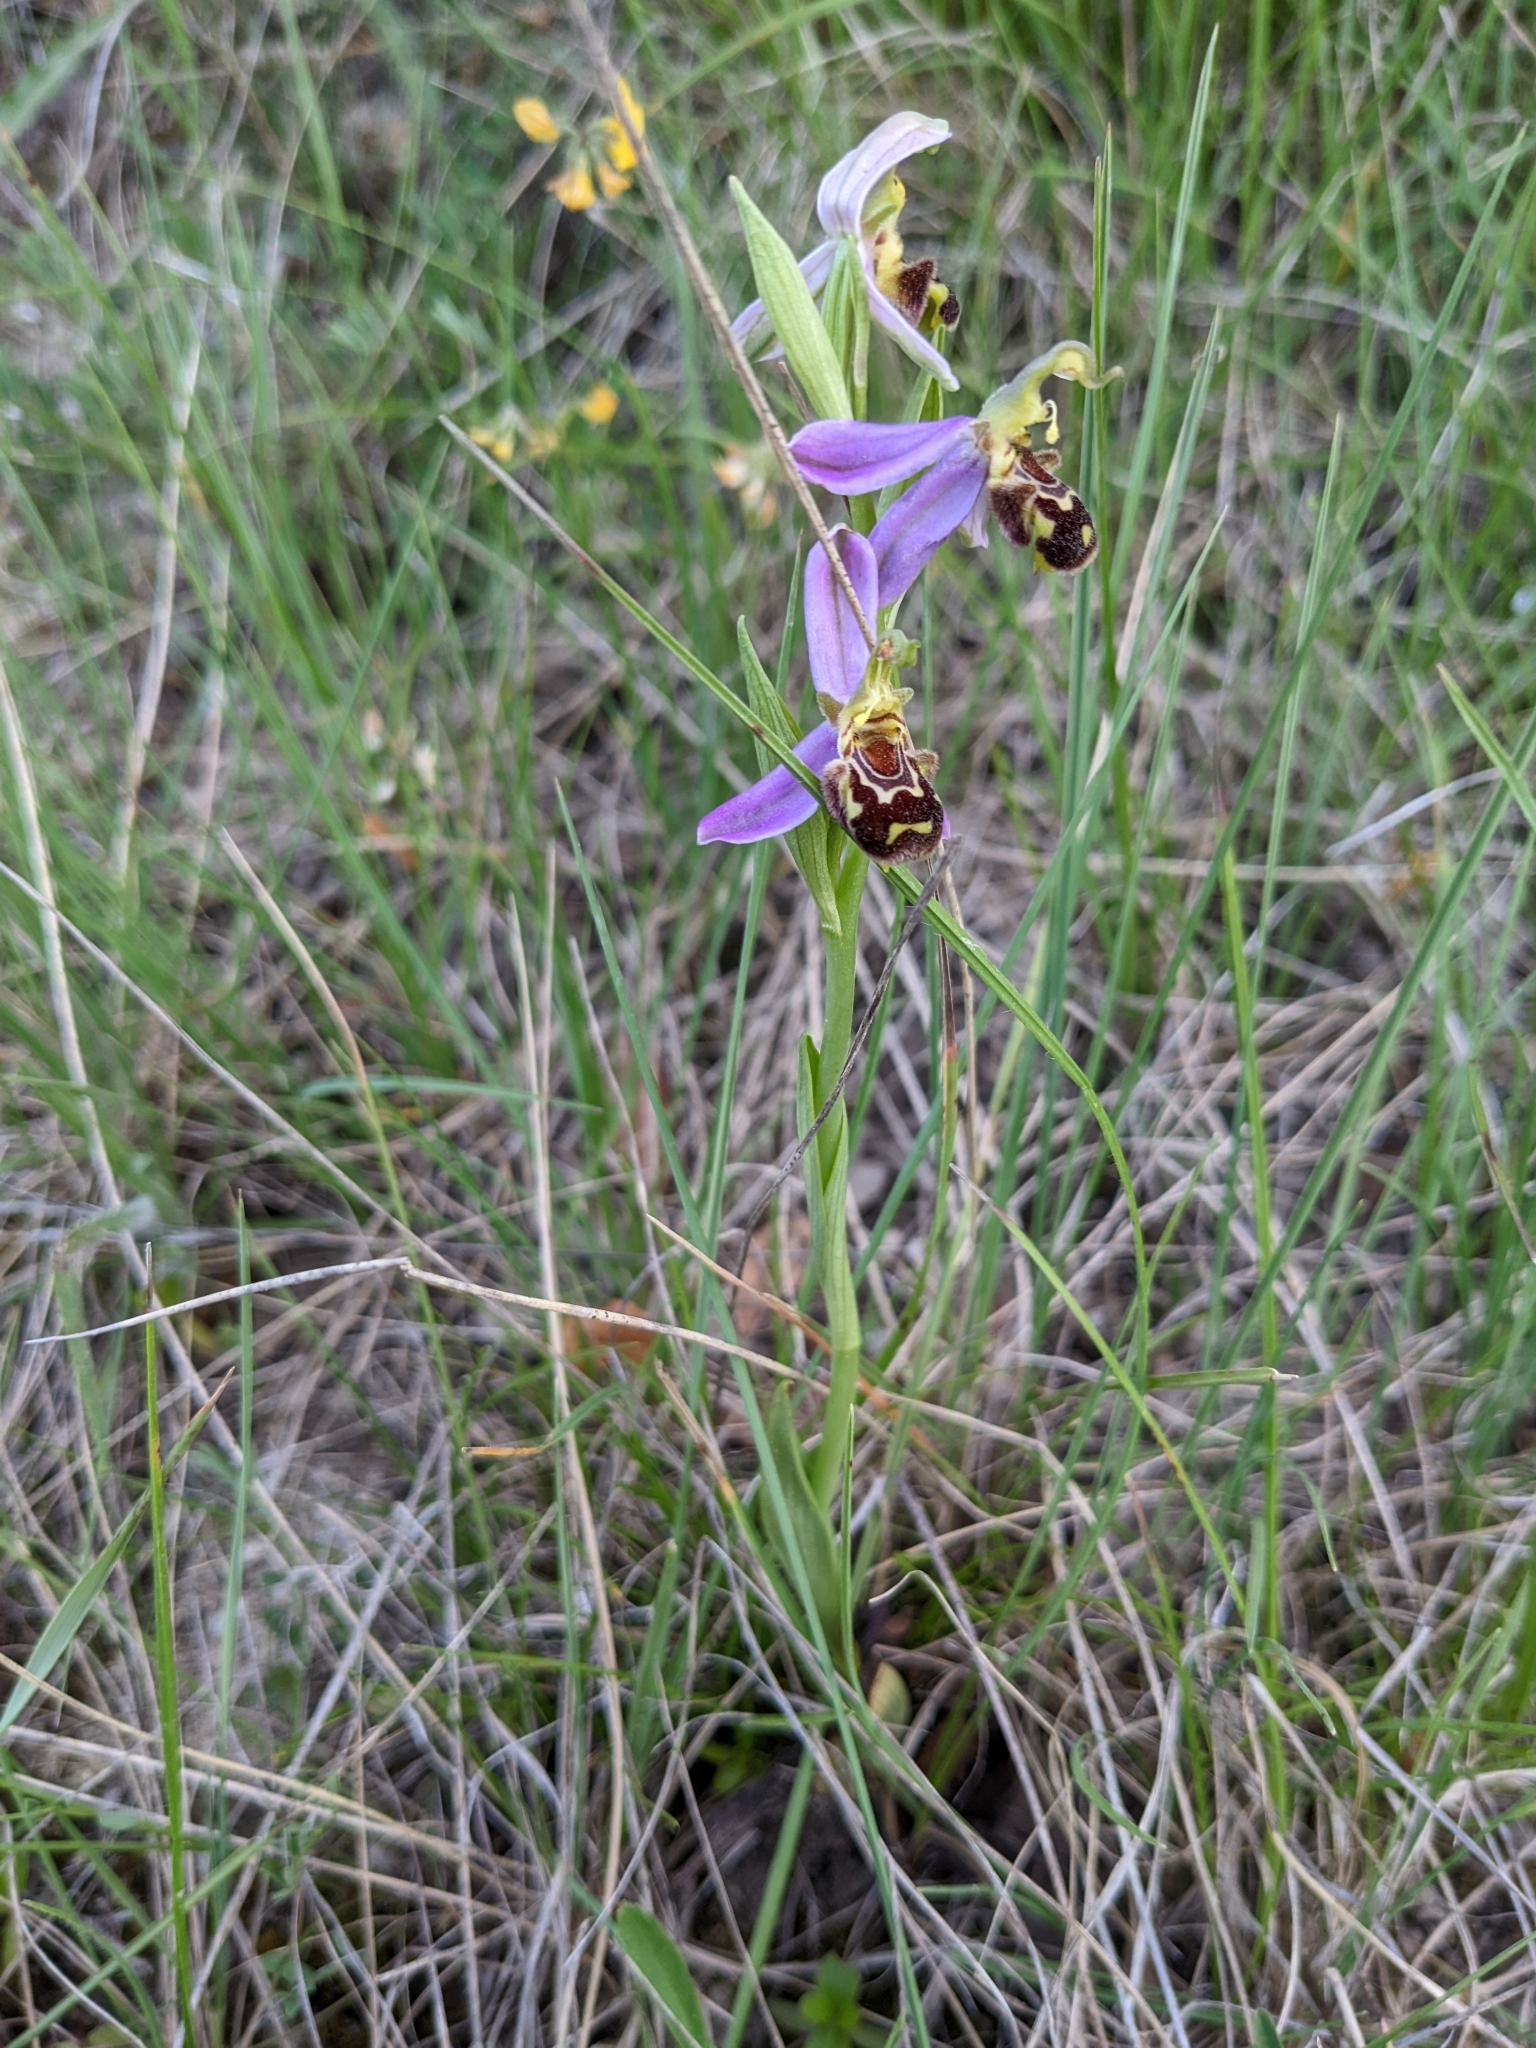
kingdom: Plantae
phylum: Tracheophyta
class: Liliopsida
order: Asparagales
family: Orchidaceae
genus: Ophrys
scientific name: Ophrys apifera
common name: Bee orchid
